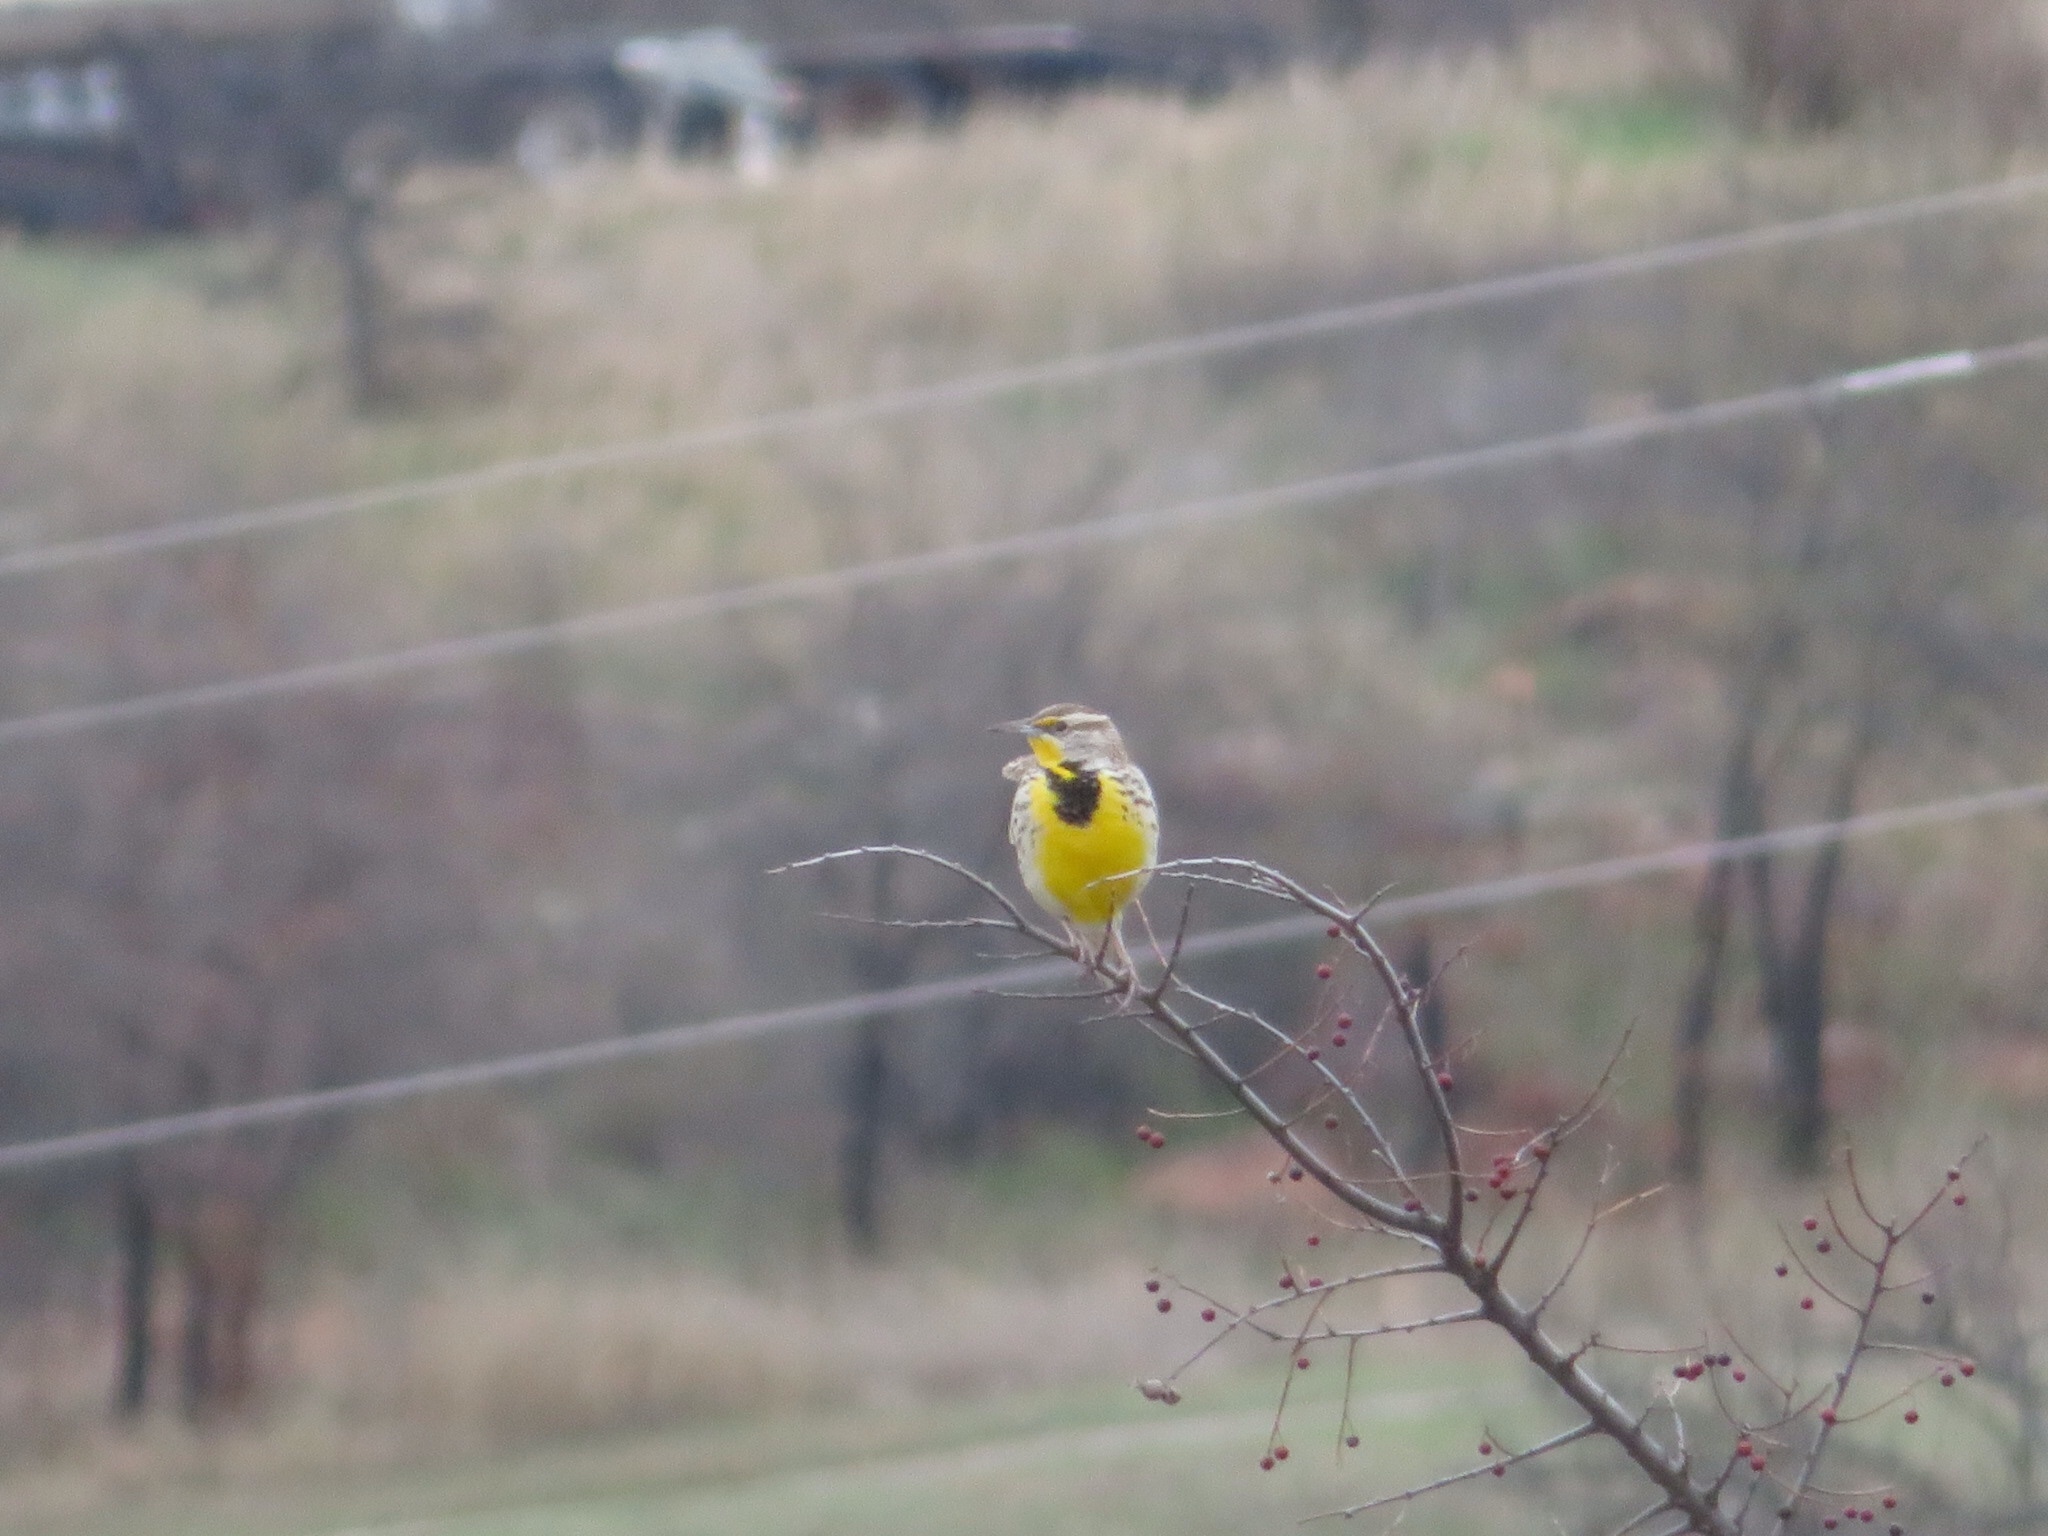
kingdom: Animalia
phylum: Chordata
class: Aves
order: Passeriformes
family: Icteridae
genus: Sturnella
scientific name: Sturnella neglecta
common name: Western meadowlark
